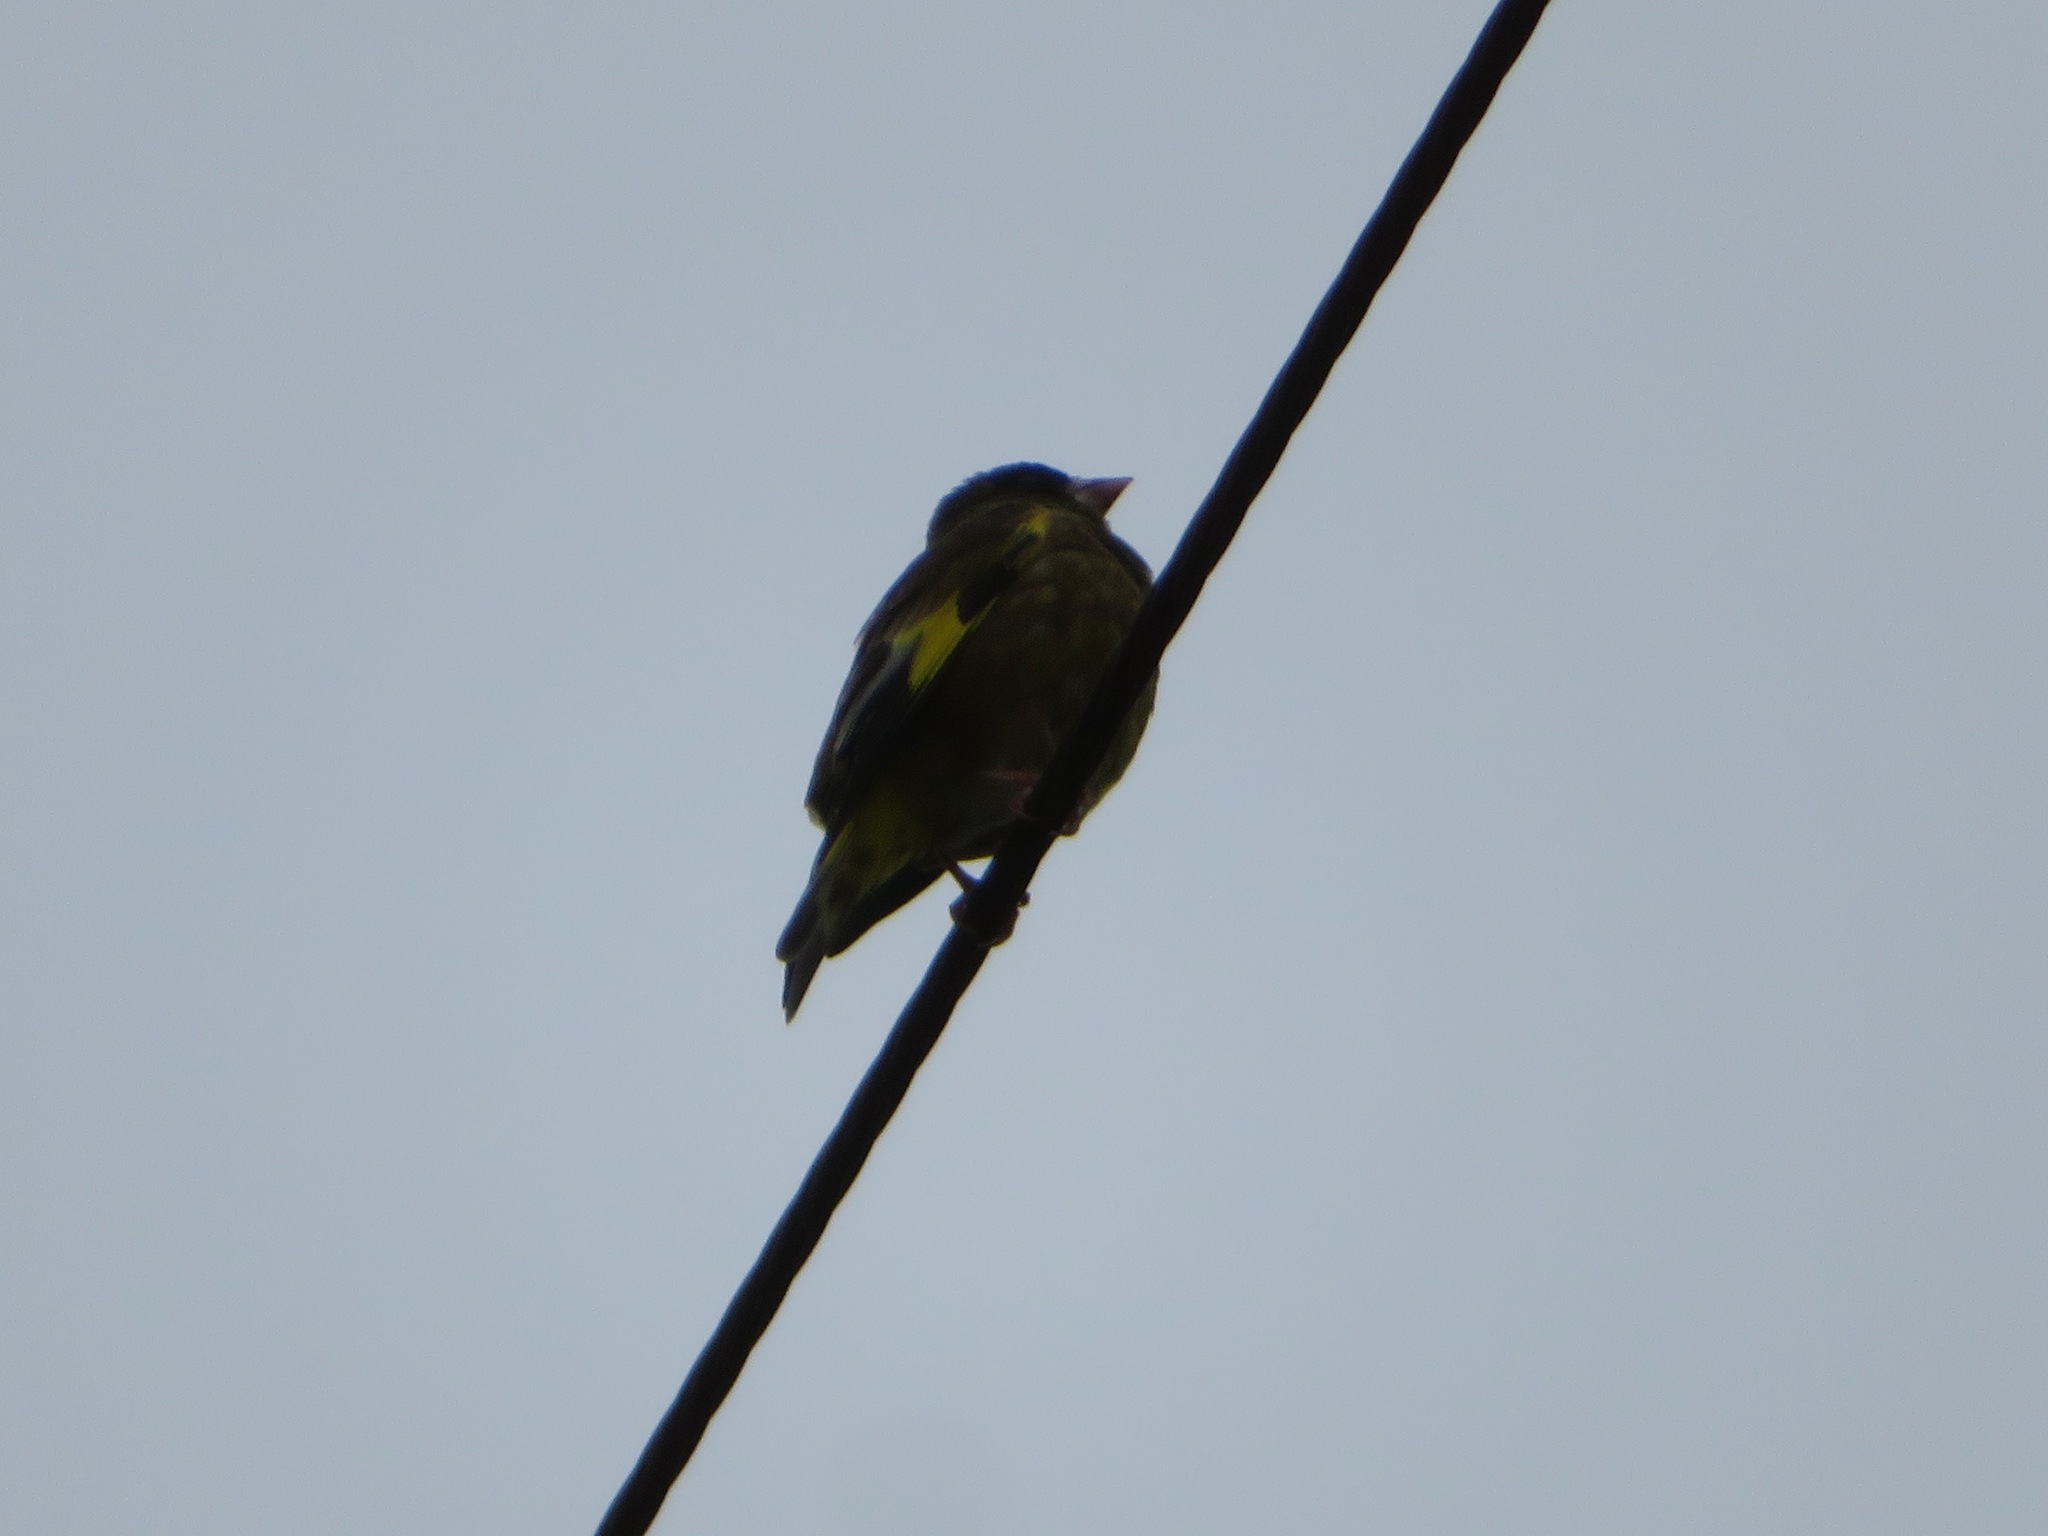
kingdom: Plantae
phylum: Tracheophyta
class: Liliopsida
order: Poales
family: Poaceae
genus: Chloris
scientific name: Chloris sinica
